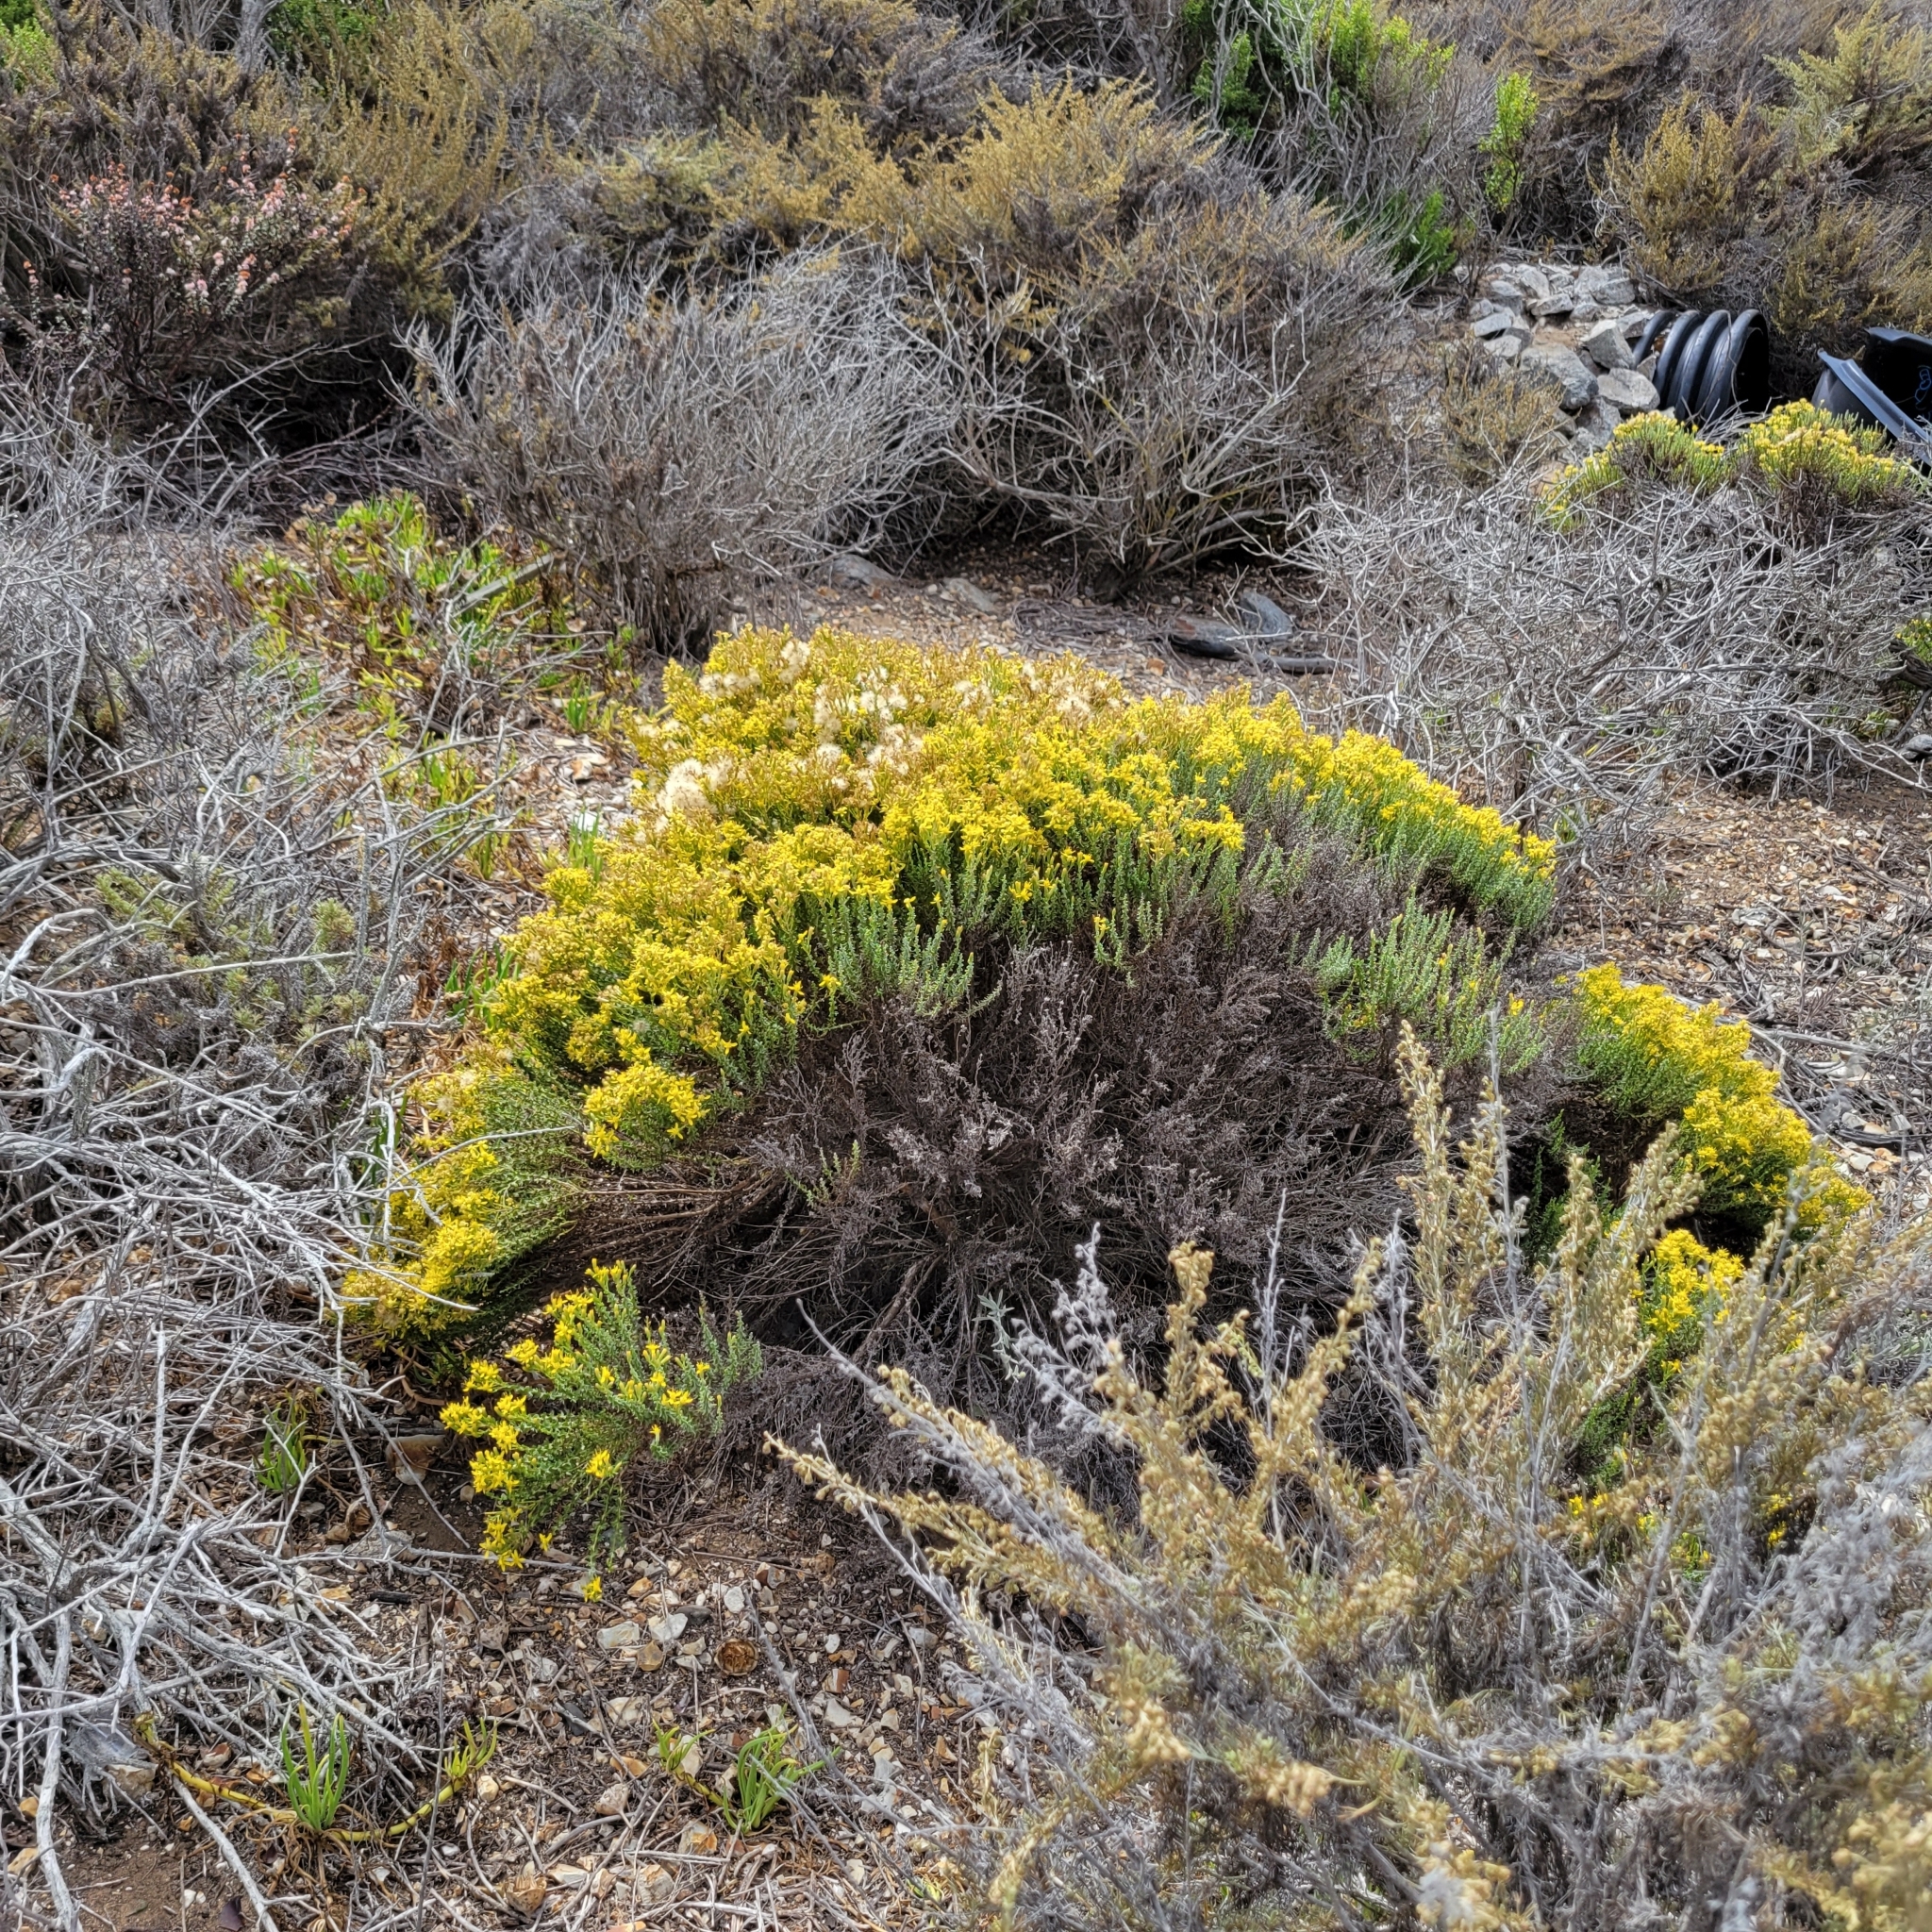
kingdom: Plantae
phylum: Tracheophyta
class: Magnoliopsida
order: Asterales
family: Asteraceae
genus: Ericameria
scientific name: Ericameria ericoides
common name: California goldenbush
